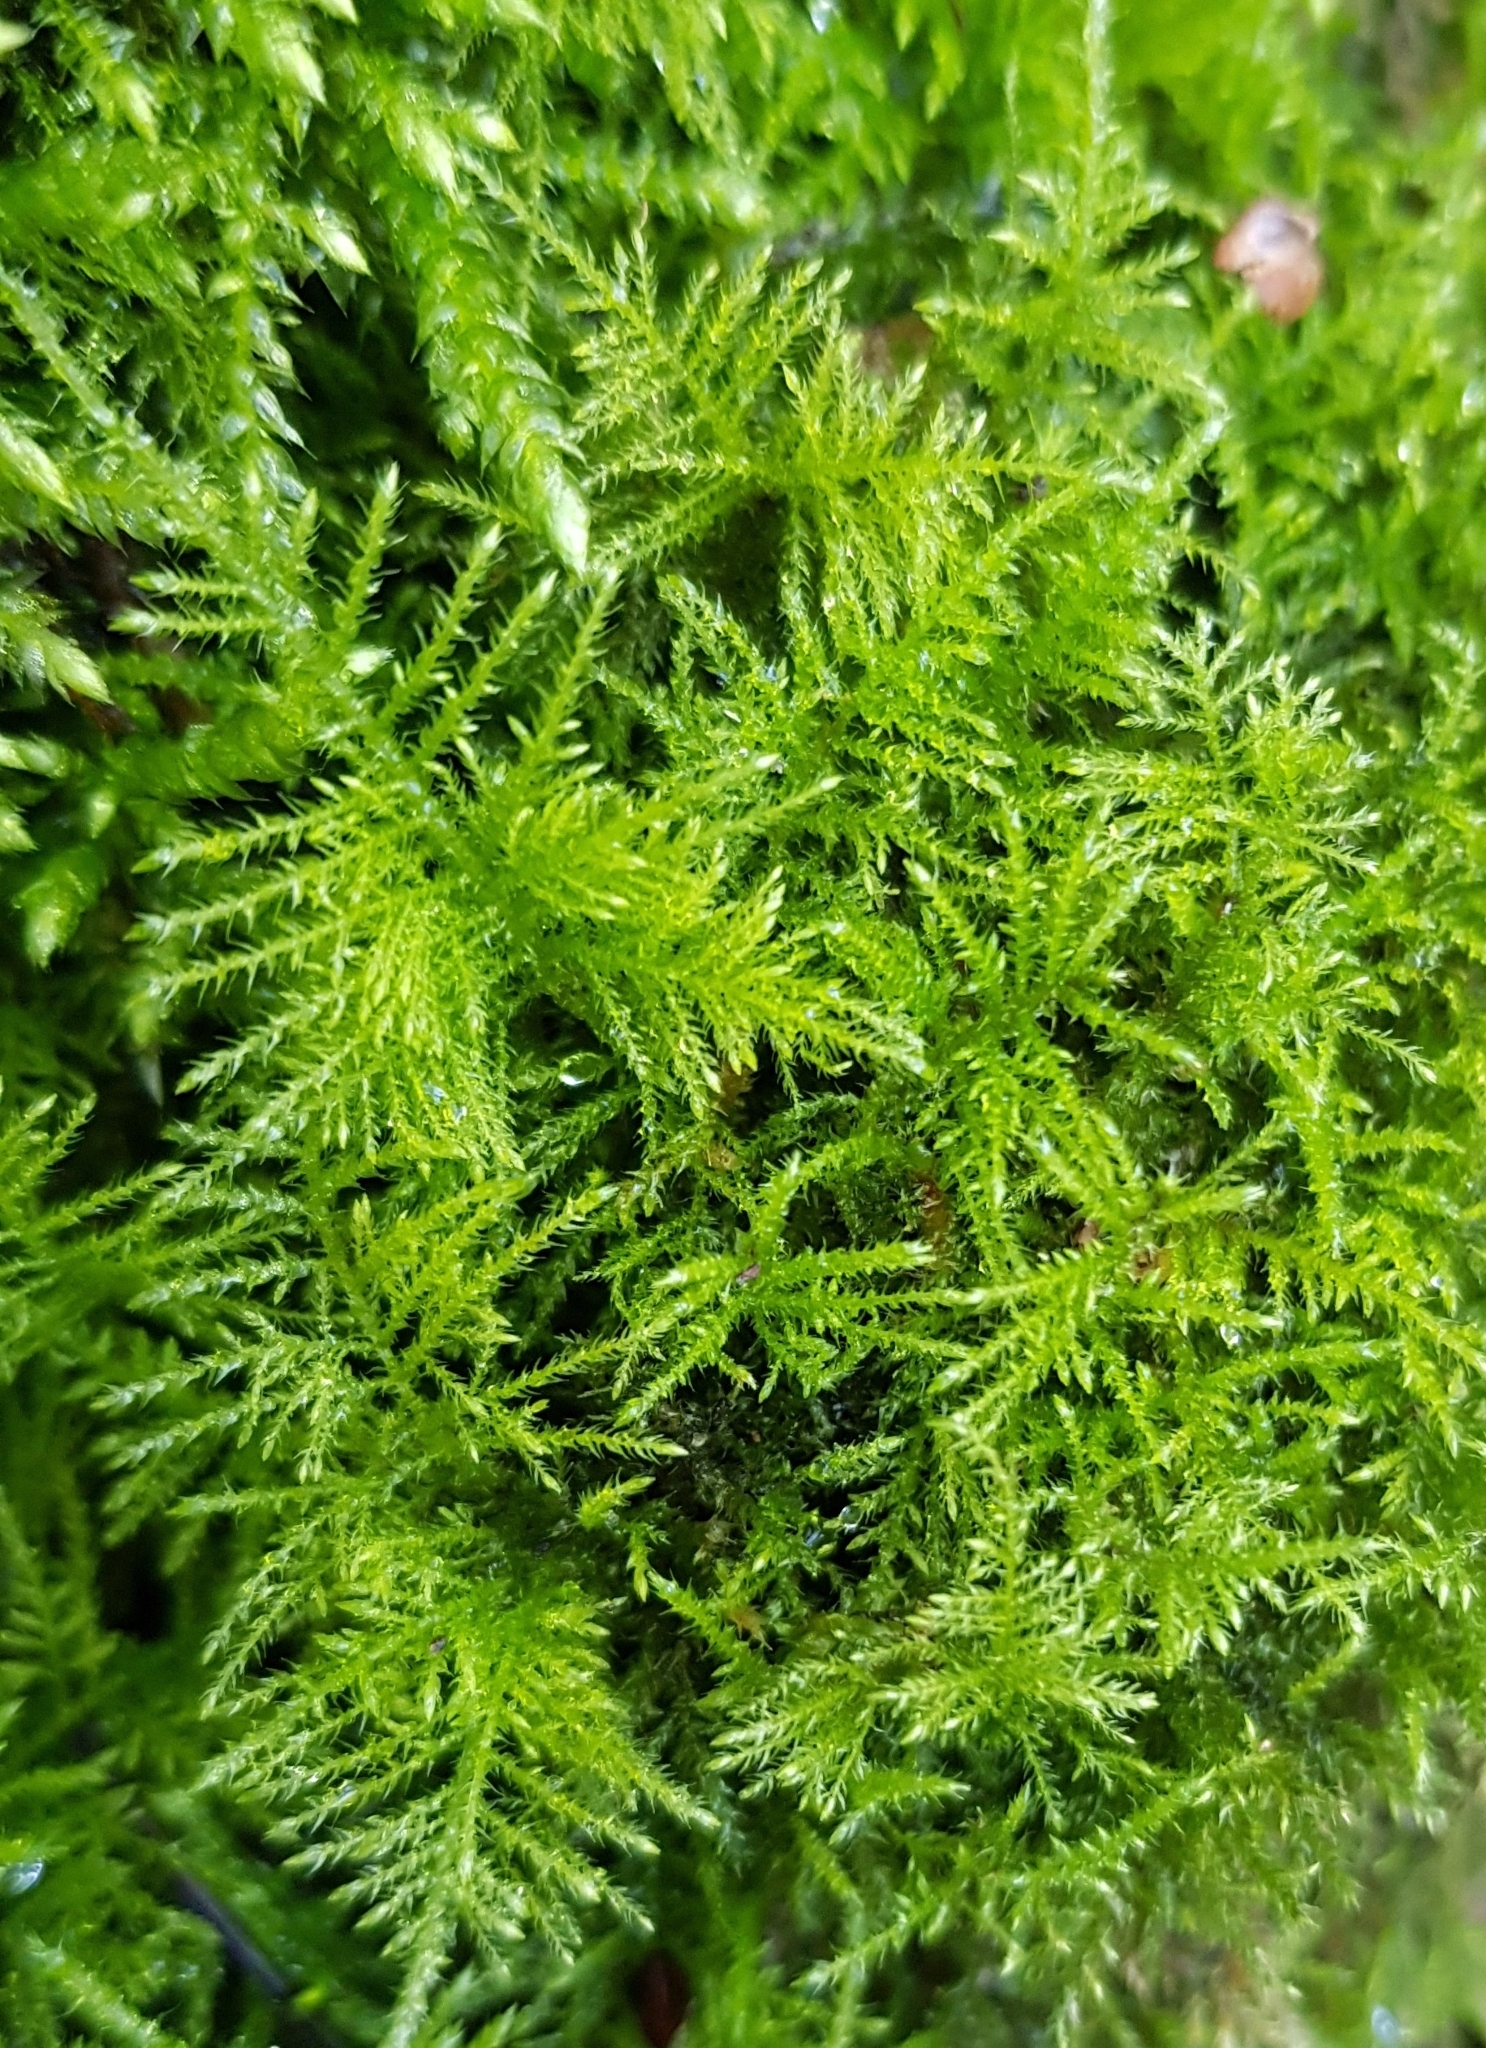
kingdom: Plantae
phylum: Bryophyta
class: Bryopsida
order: Hypnales
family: Brachytheciaceae
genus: Kindbergia
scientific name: Kindbergia praelonga
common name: Slender beaked moss
